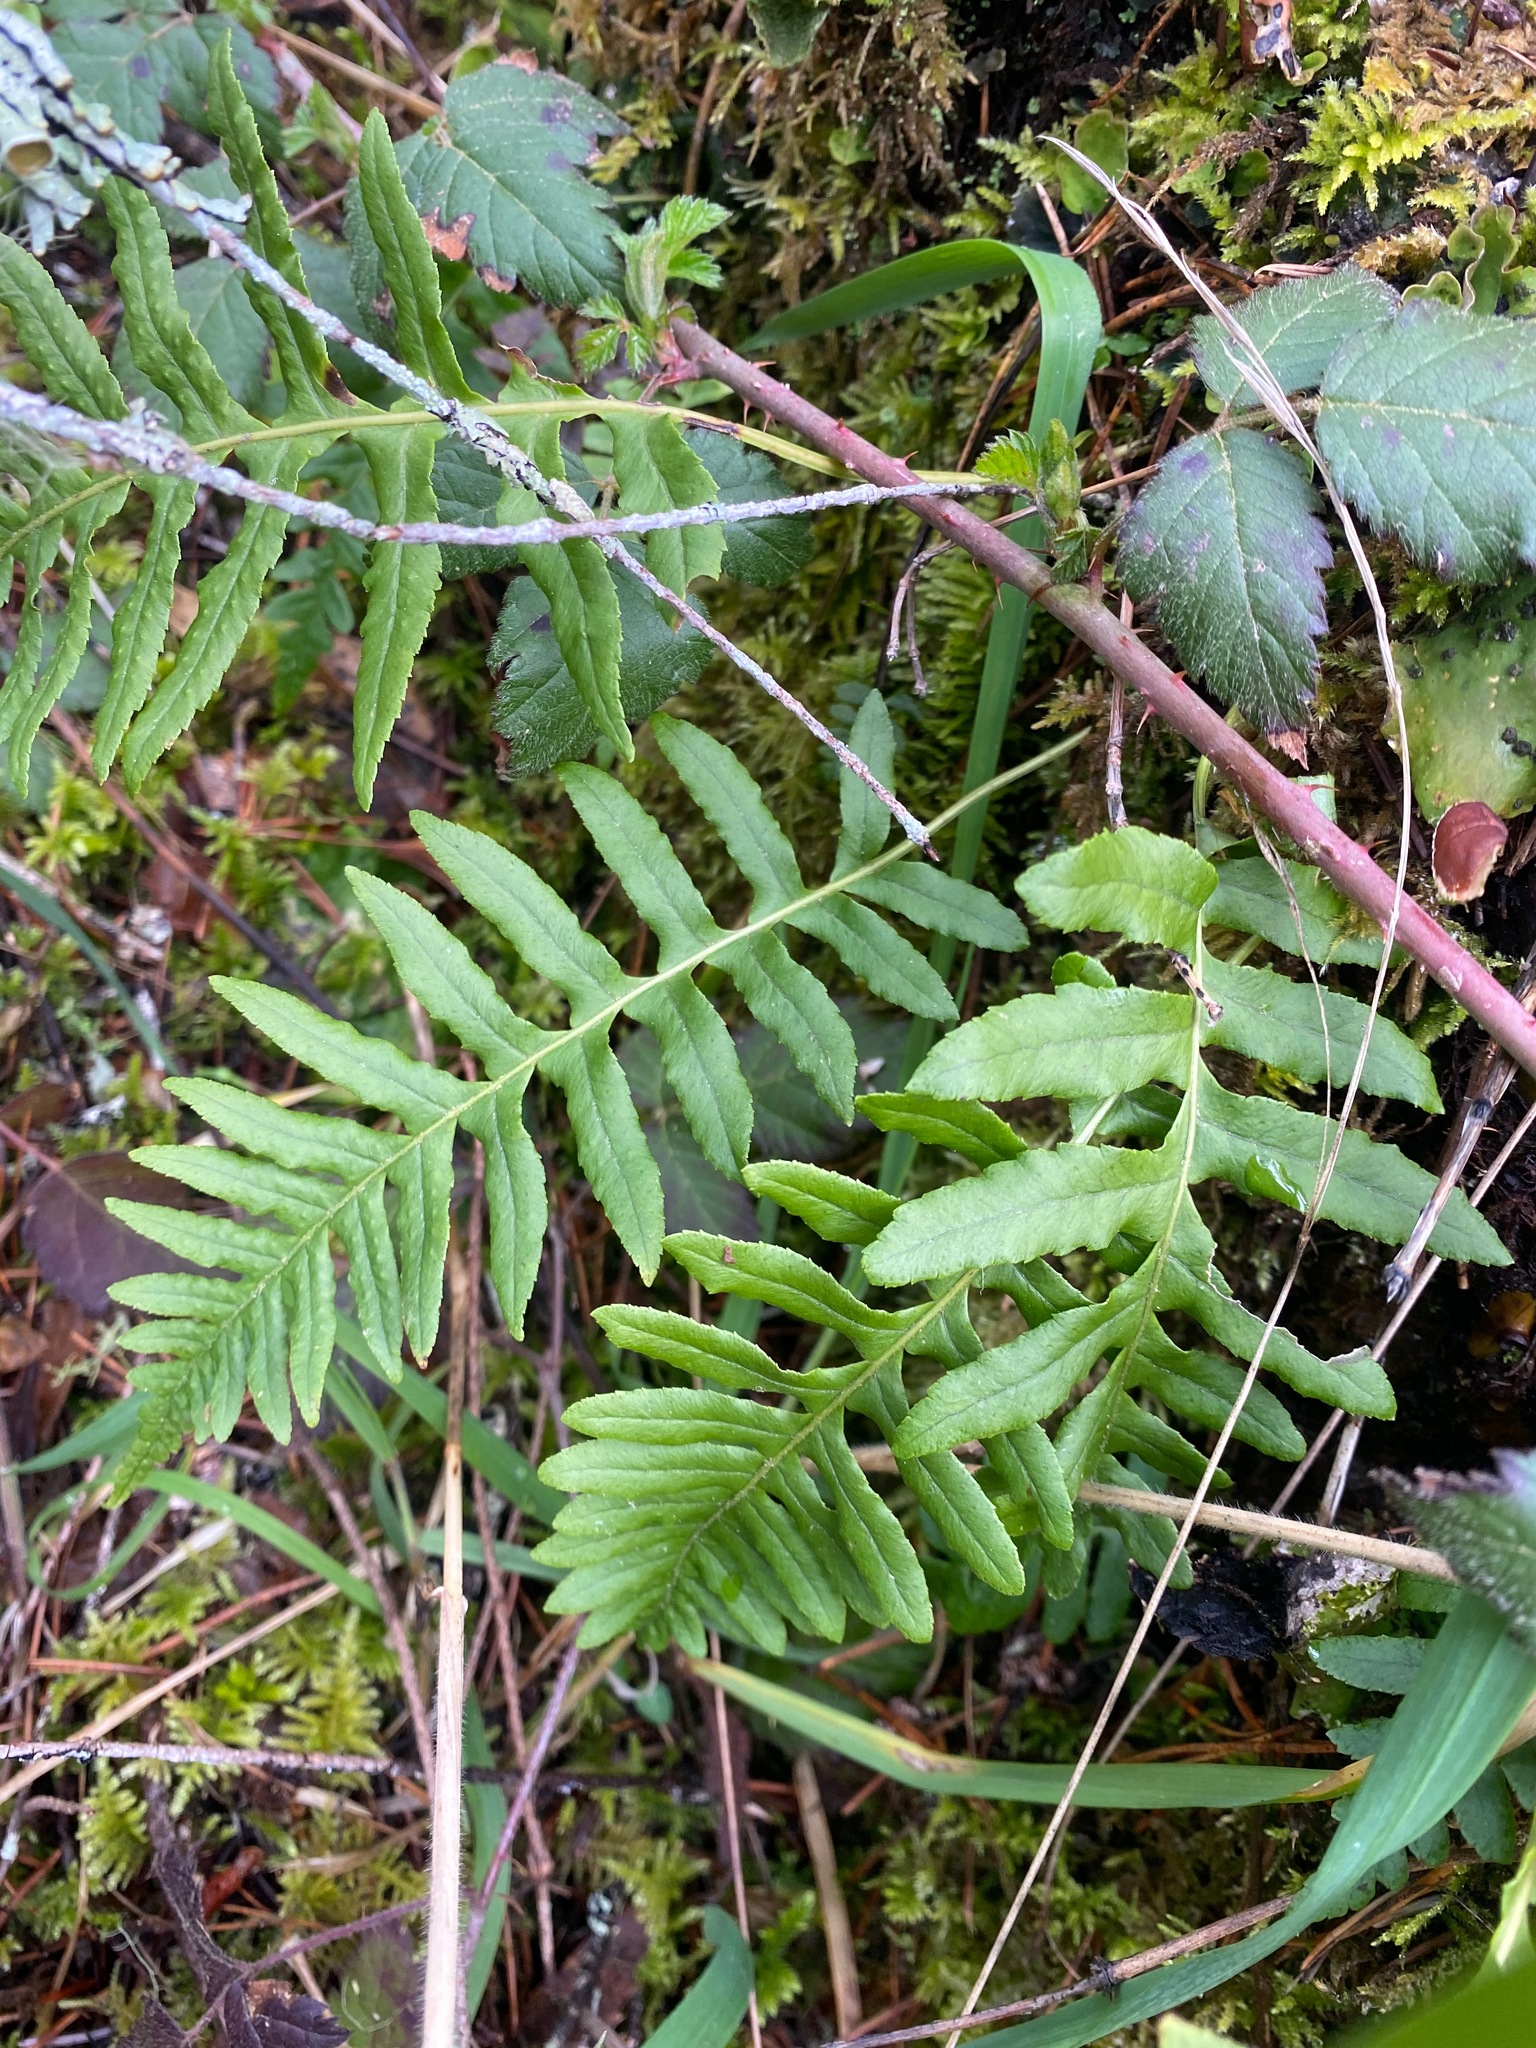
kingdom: Plantae
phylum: Tracheophyta
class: Polypodiopsida
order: Polypodiales
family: Polypodiaceae
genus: Polypodium
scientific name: Polypodium glycyrrhiza
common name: Licorice fern
